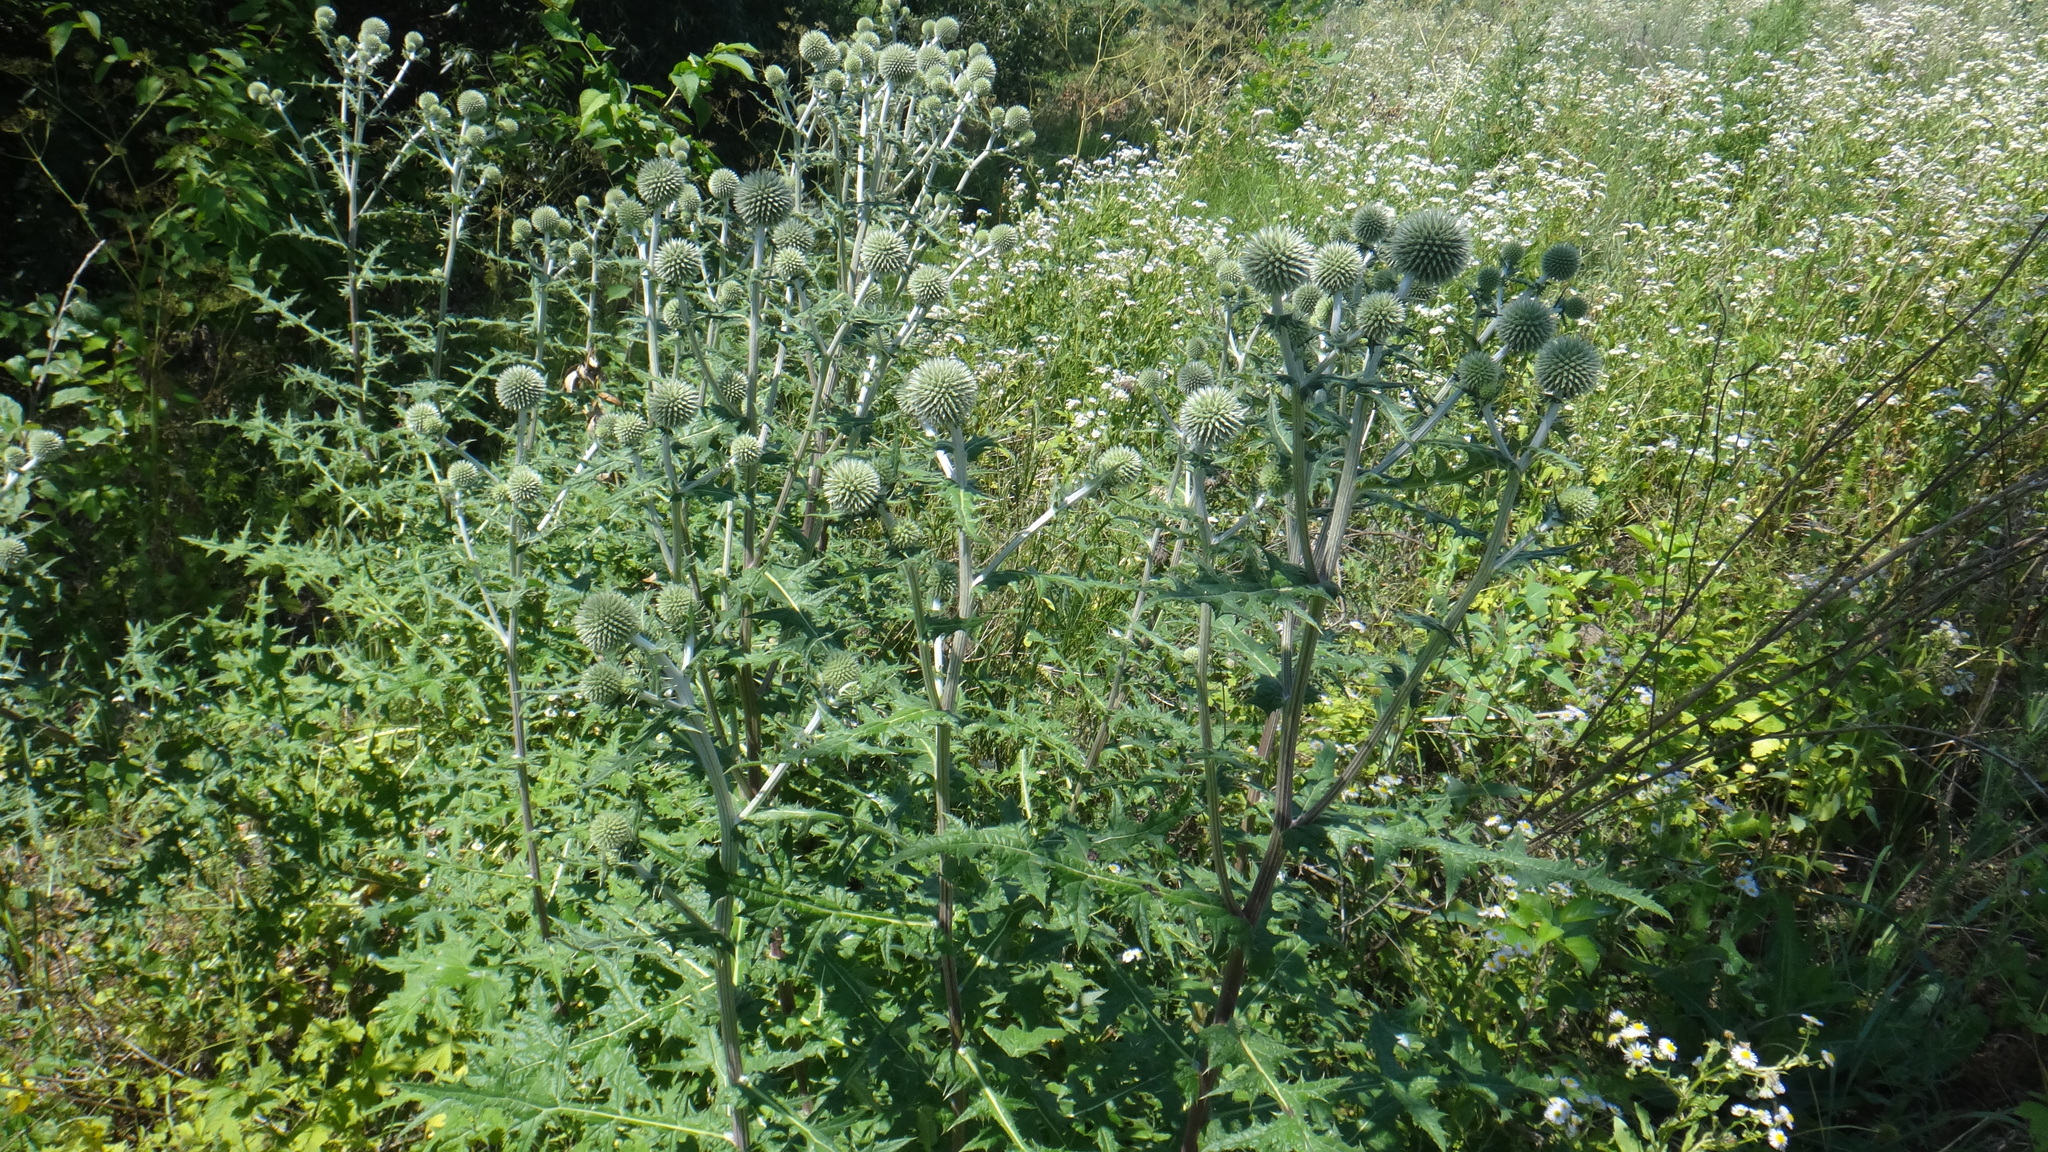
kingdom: Plantae
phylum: Tracheophyta
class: Magnoliopsida
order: Asterales
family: Asteraceae
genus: Echinops
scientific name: Echinops sphaerocephalus
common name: Glandular globe-thistle
